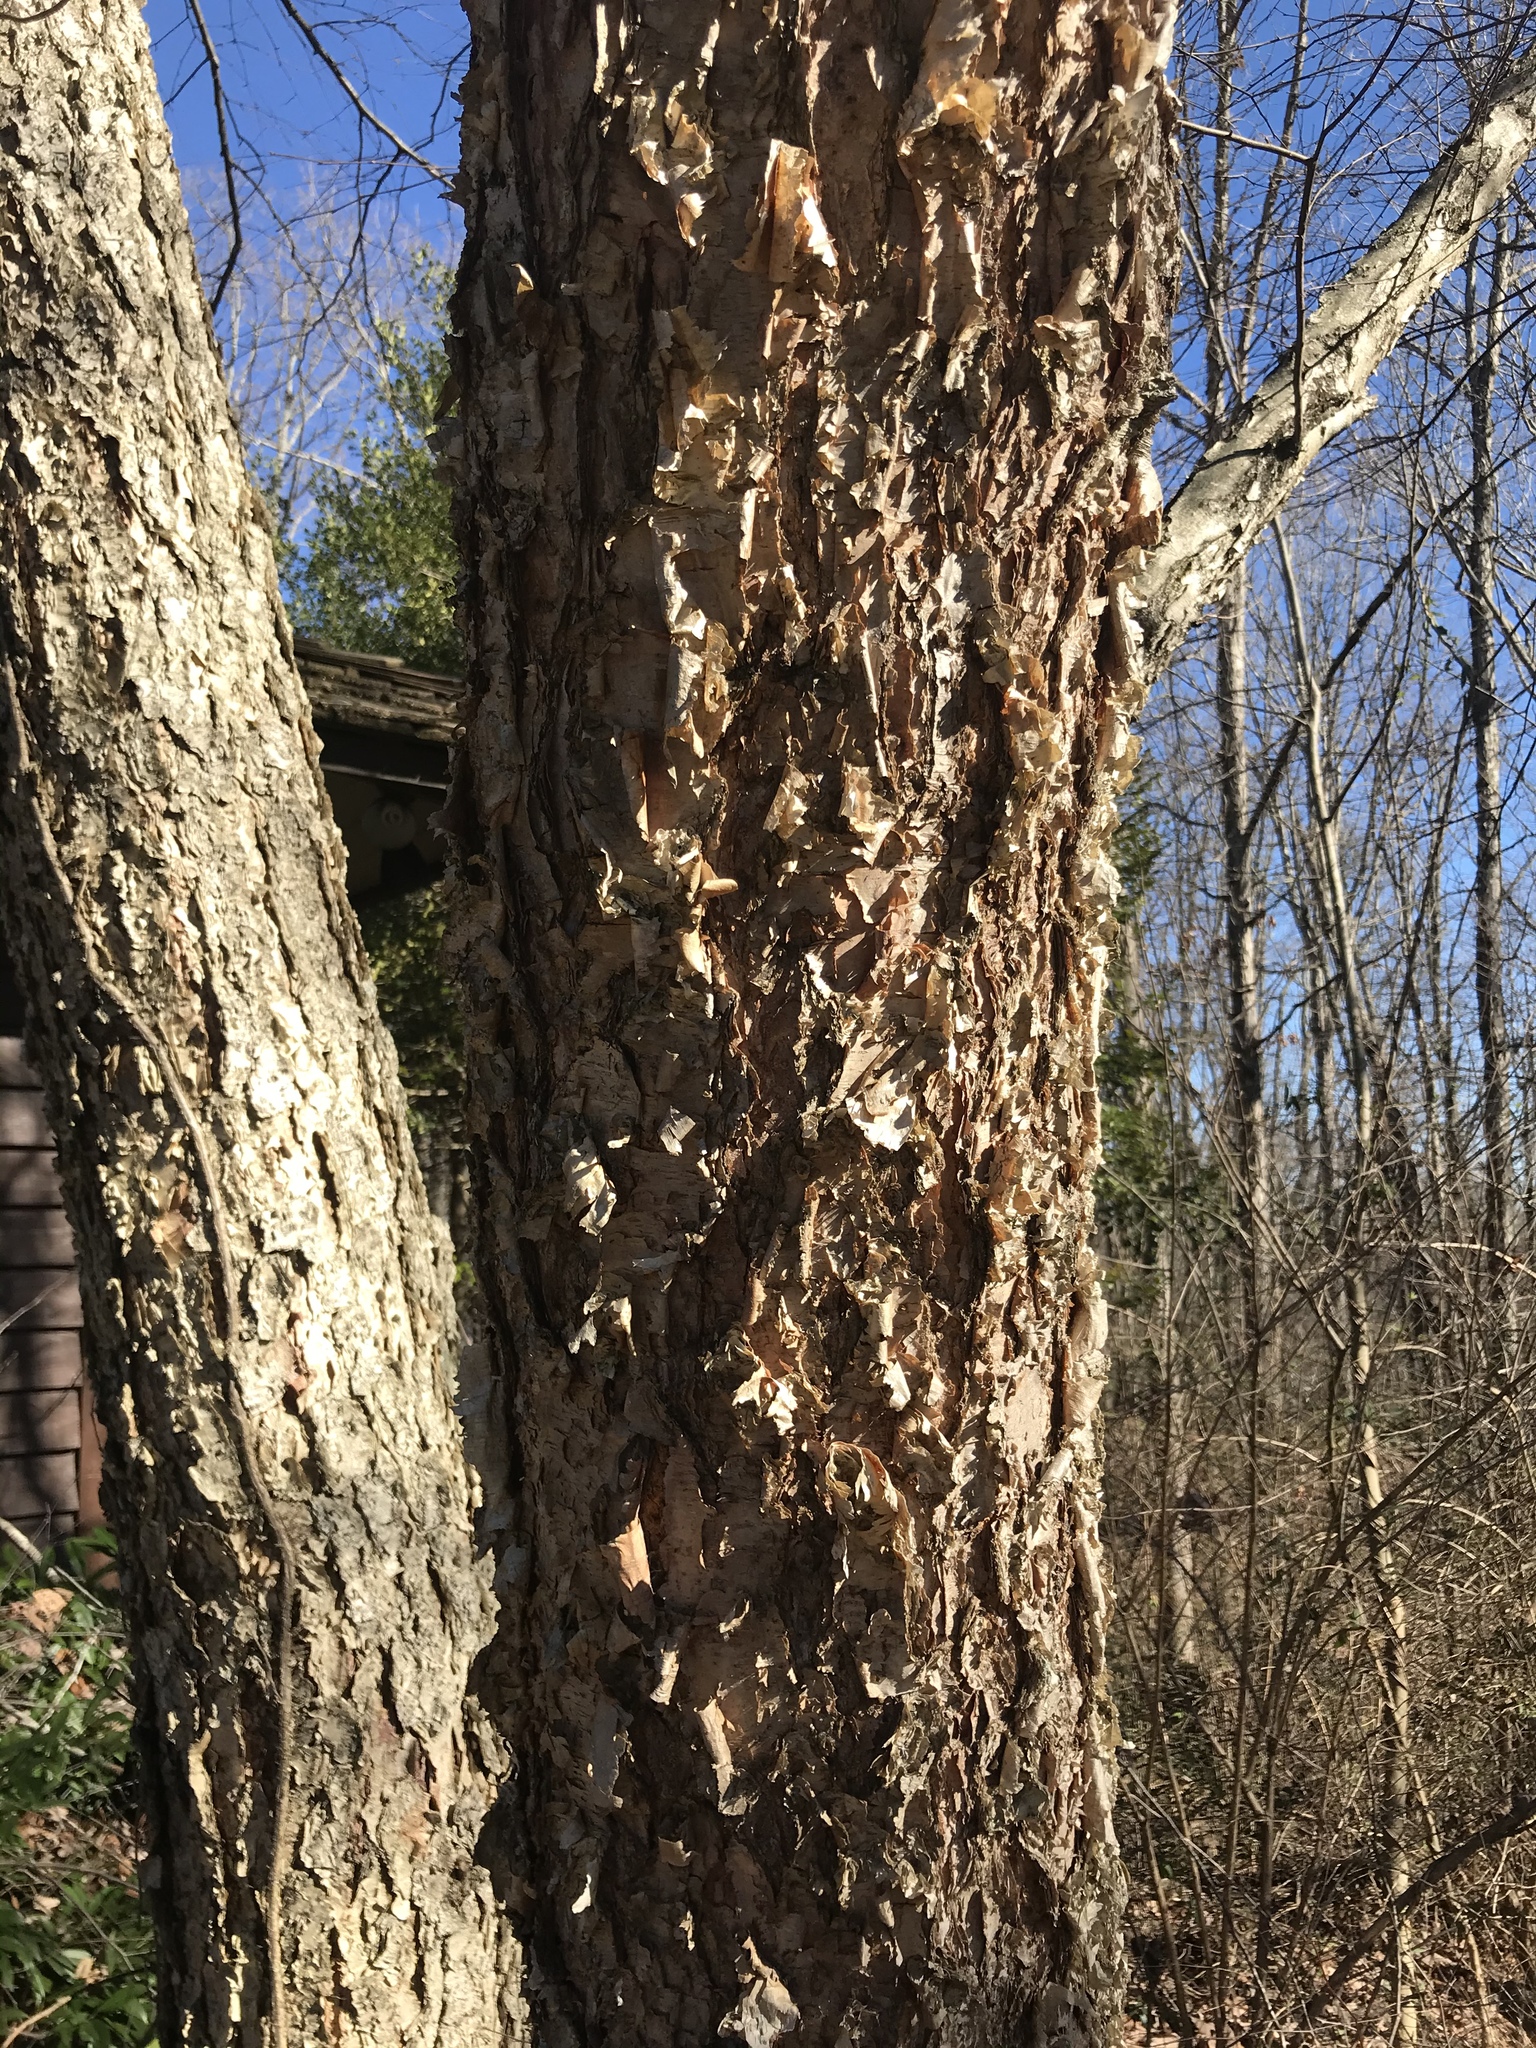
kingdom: Plantae
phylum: Tracheophyta
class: Magnoliopsida
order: Fagales
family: Betulaceae
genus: Betula
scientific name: Betula nigra
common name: Black birch
